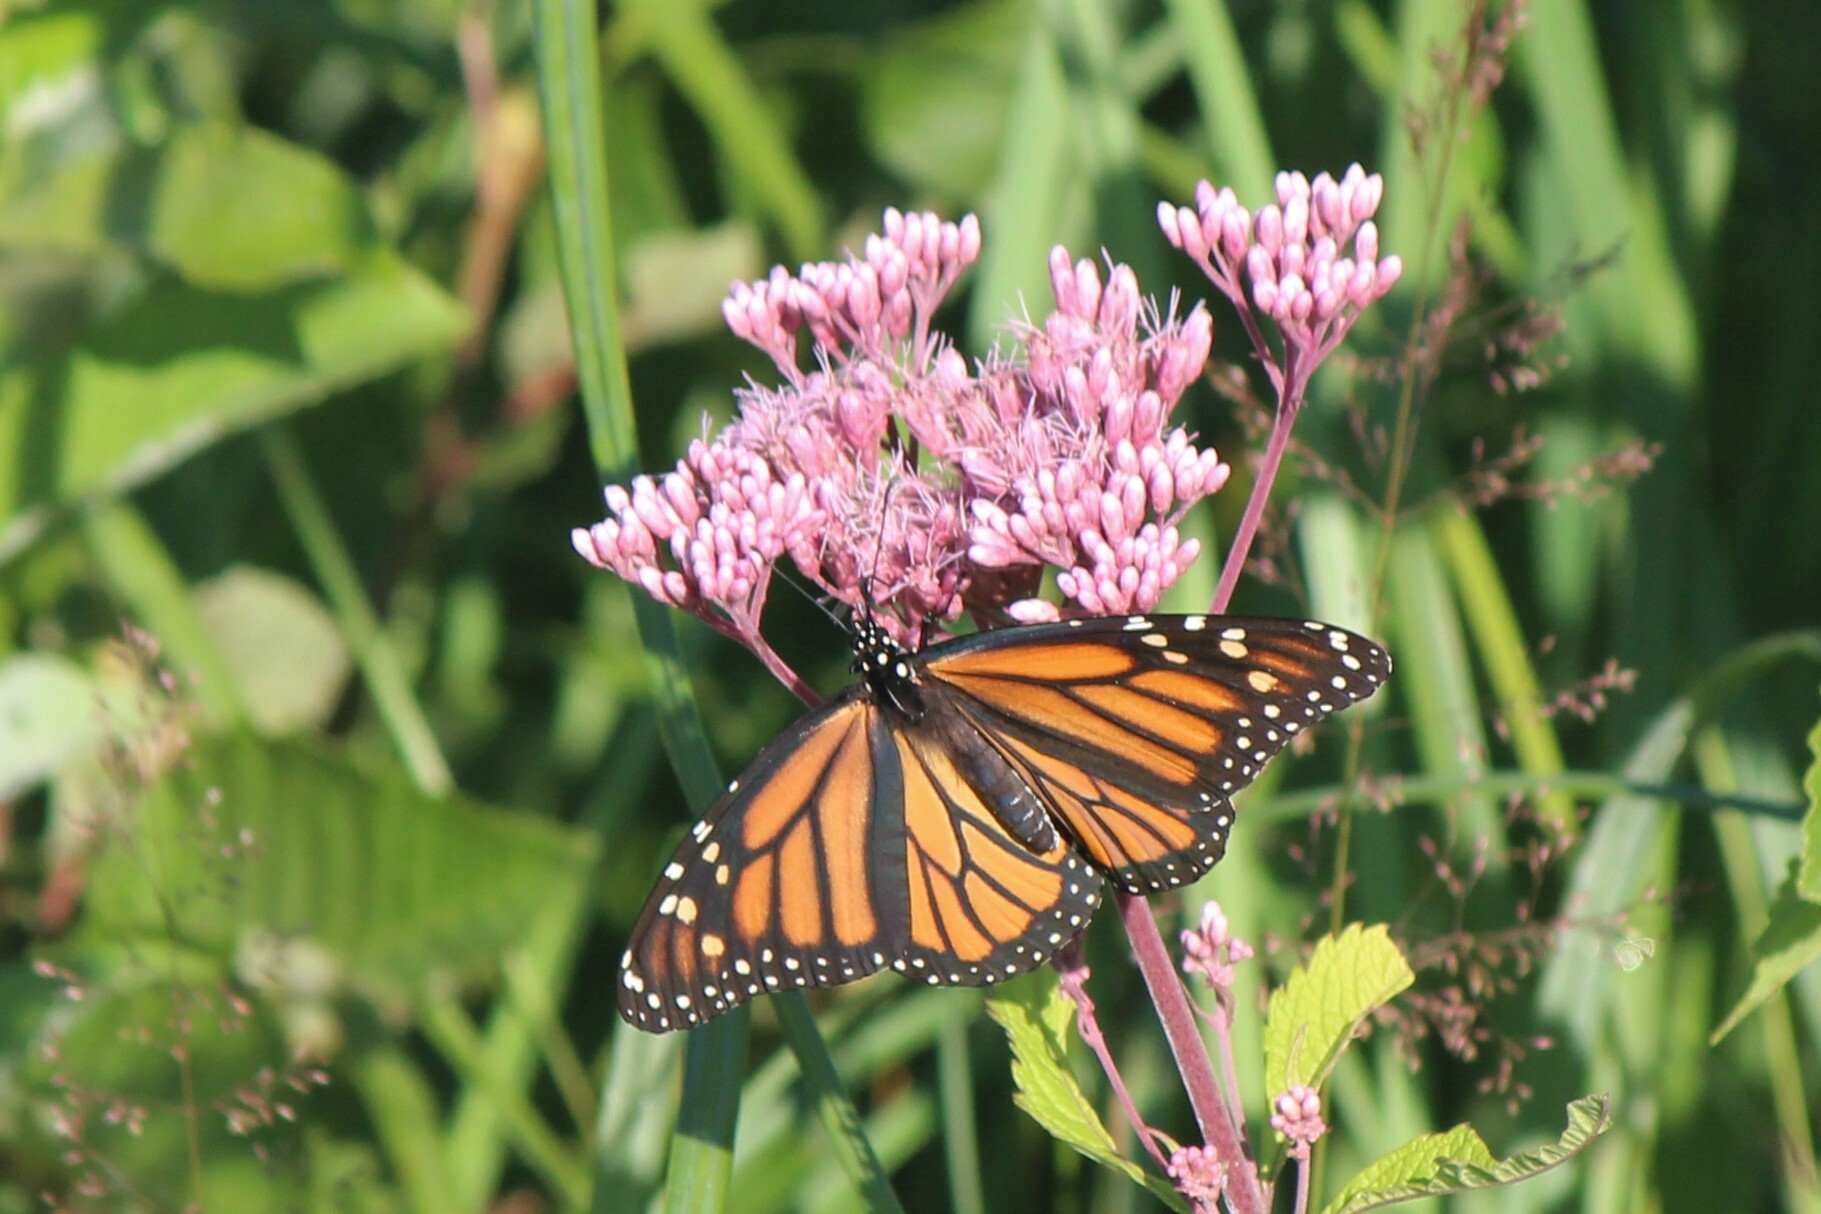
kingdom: Animalia
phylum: Arthropoda
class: Insecta
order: Lepidoptera
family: Nymphalidae
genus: Danaus
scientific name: Danaus plexippus
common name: Monarch
